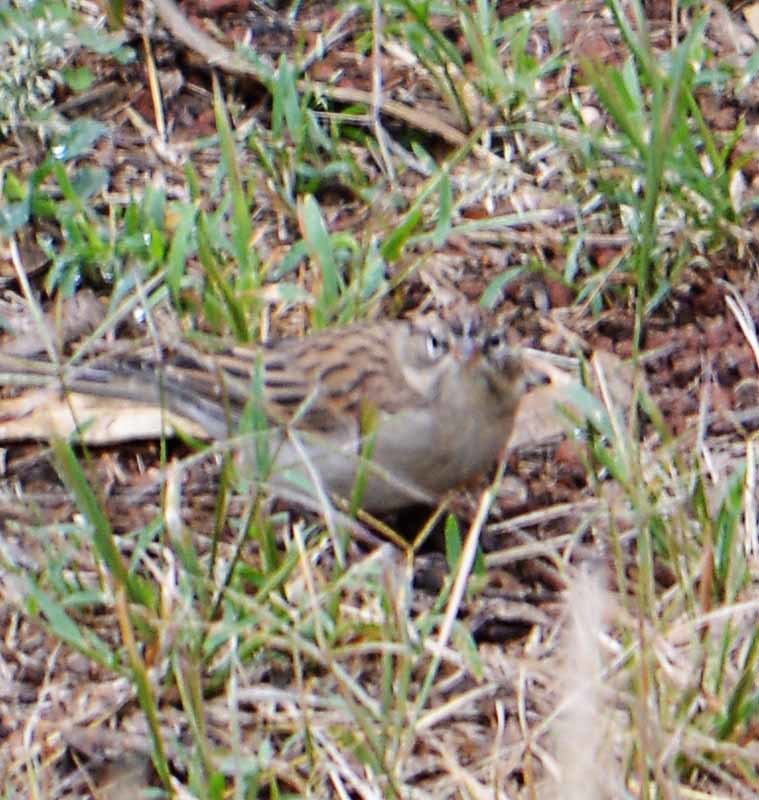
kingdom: Animalia
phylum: Chordata
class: Aves
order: Passeriformes
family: Passerellidae
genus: Spizella
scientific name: Spizella passerina
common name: Chipping sparrow
